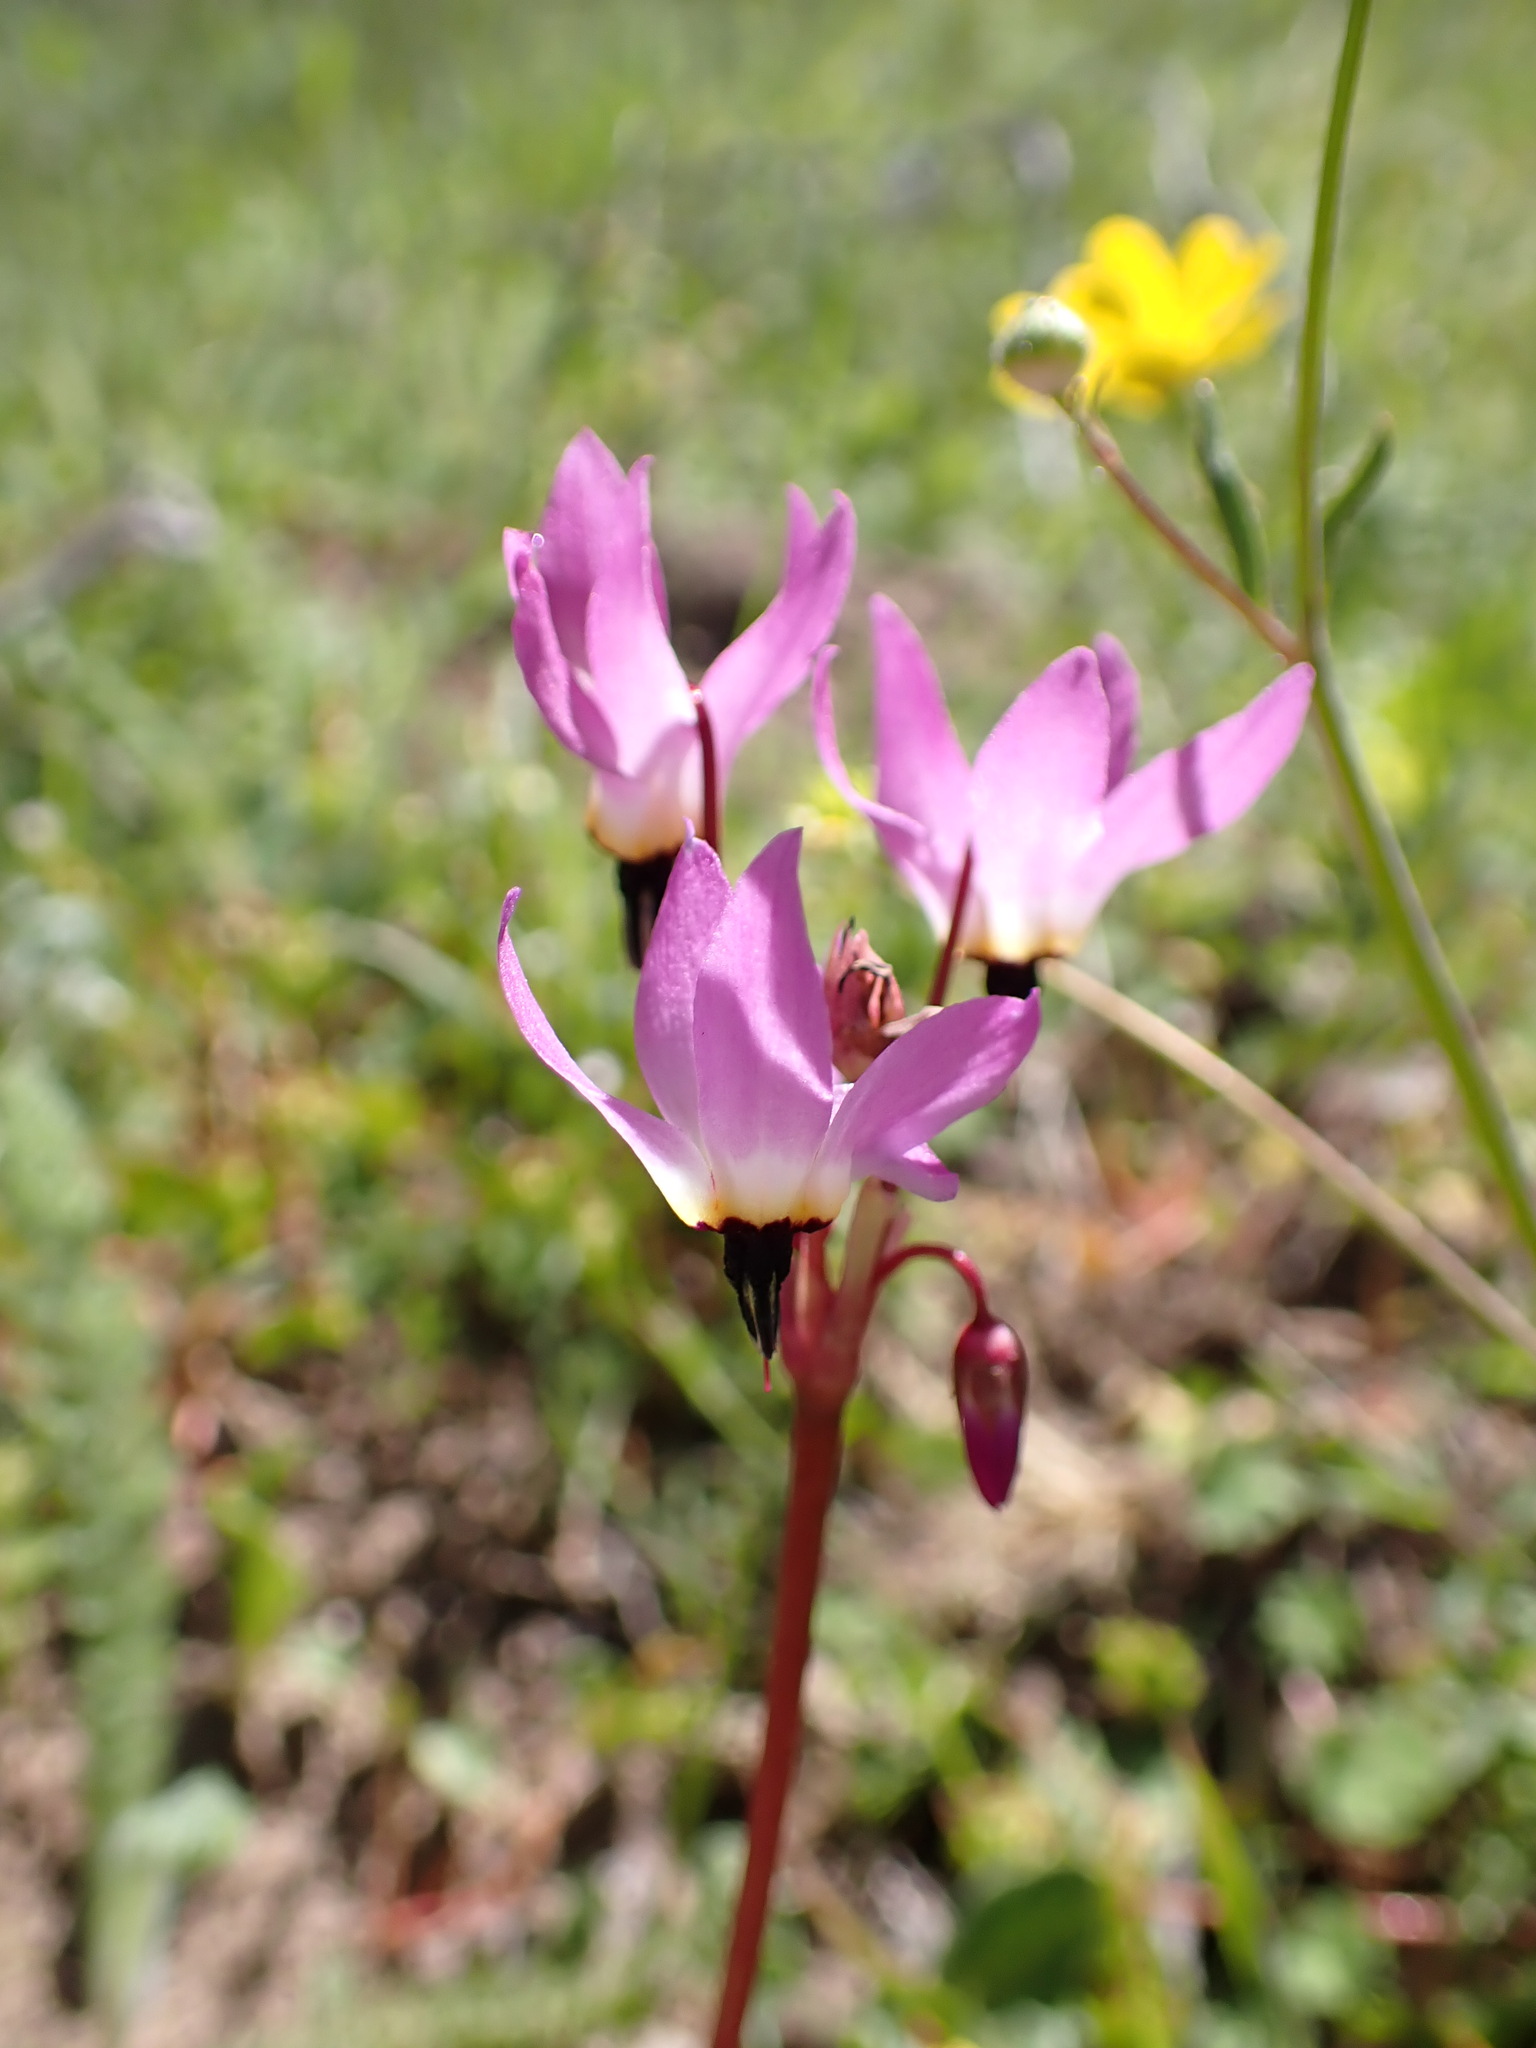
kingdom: Plantae
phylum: Tracheophyta
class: Magnoliopsida
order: Ericales
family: Primulaceae
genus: Dodecatheon
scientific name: Dodecatheon hendersonii
